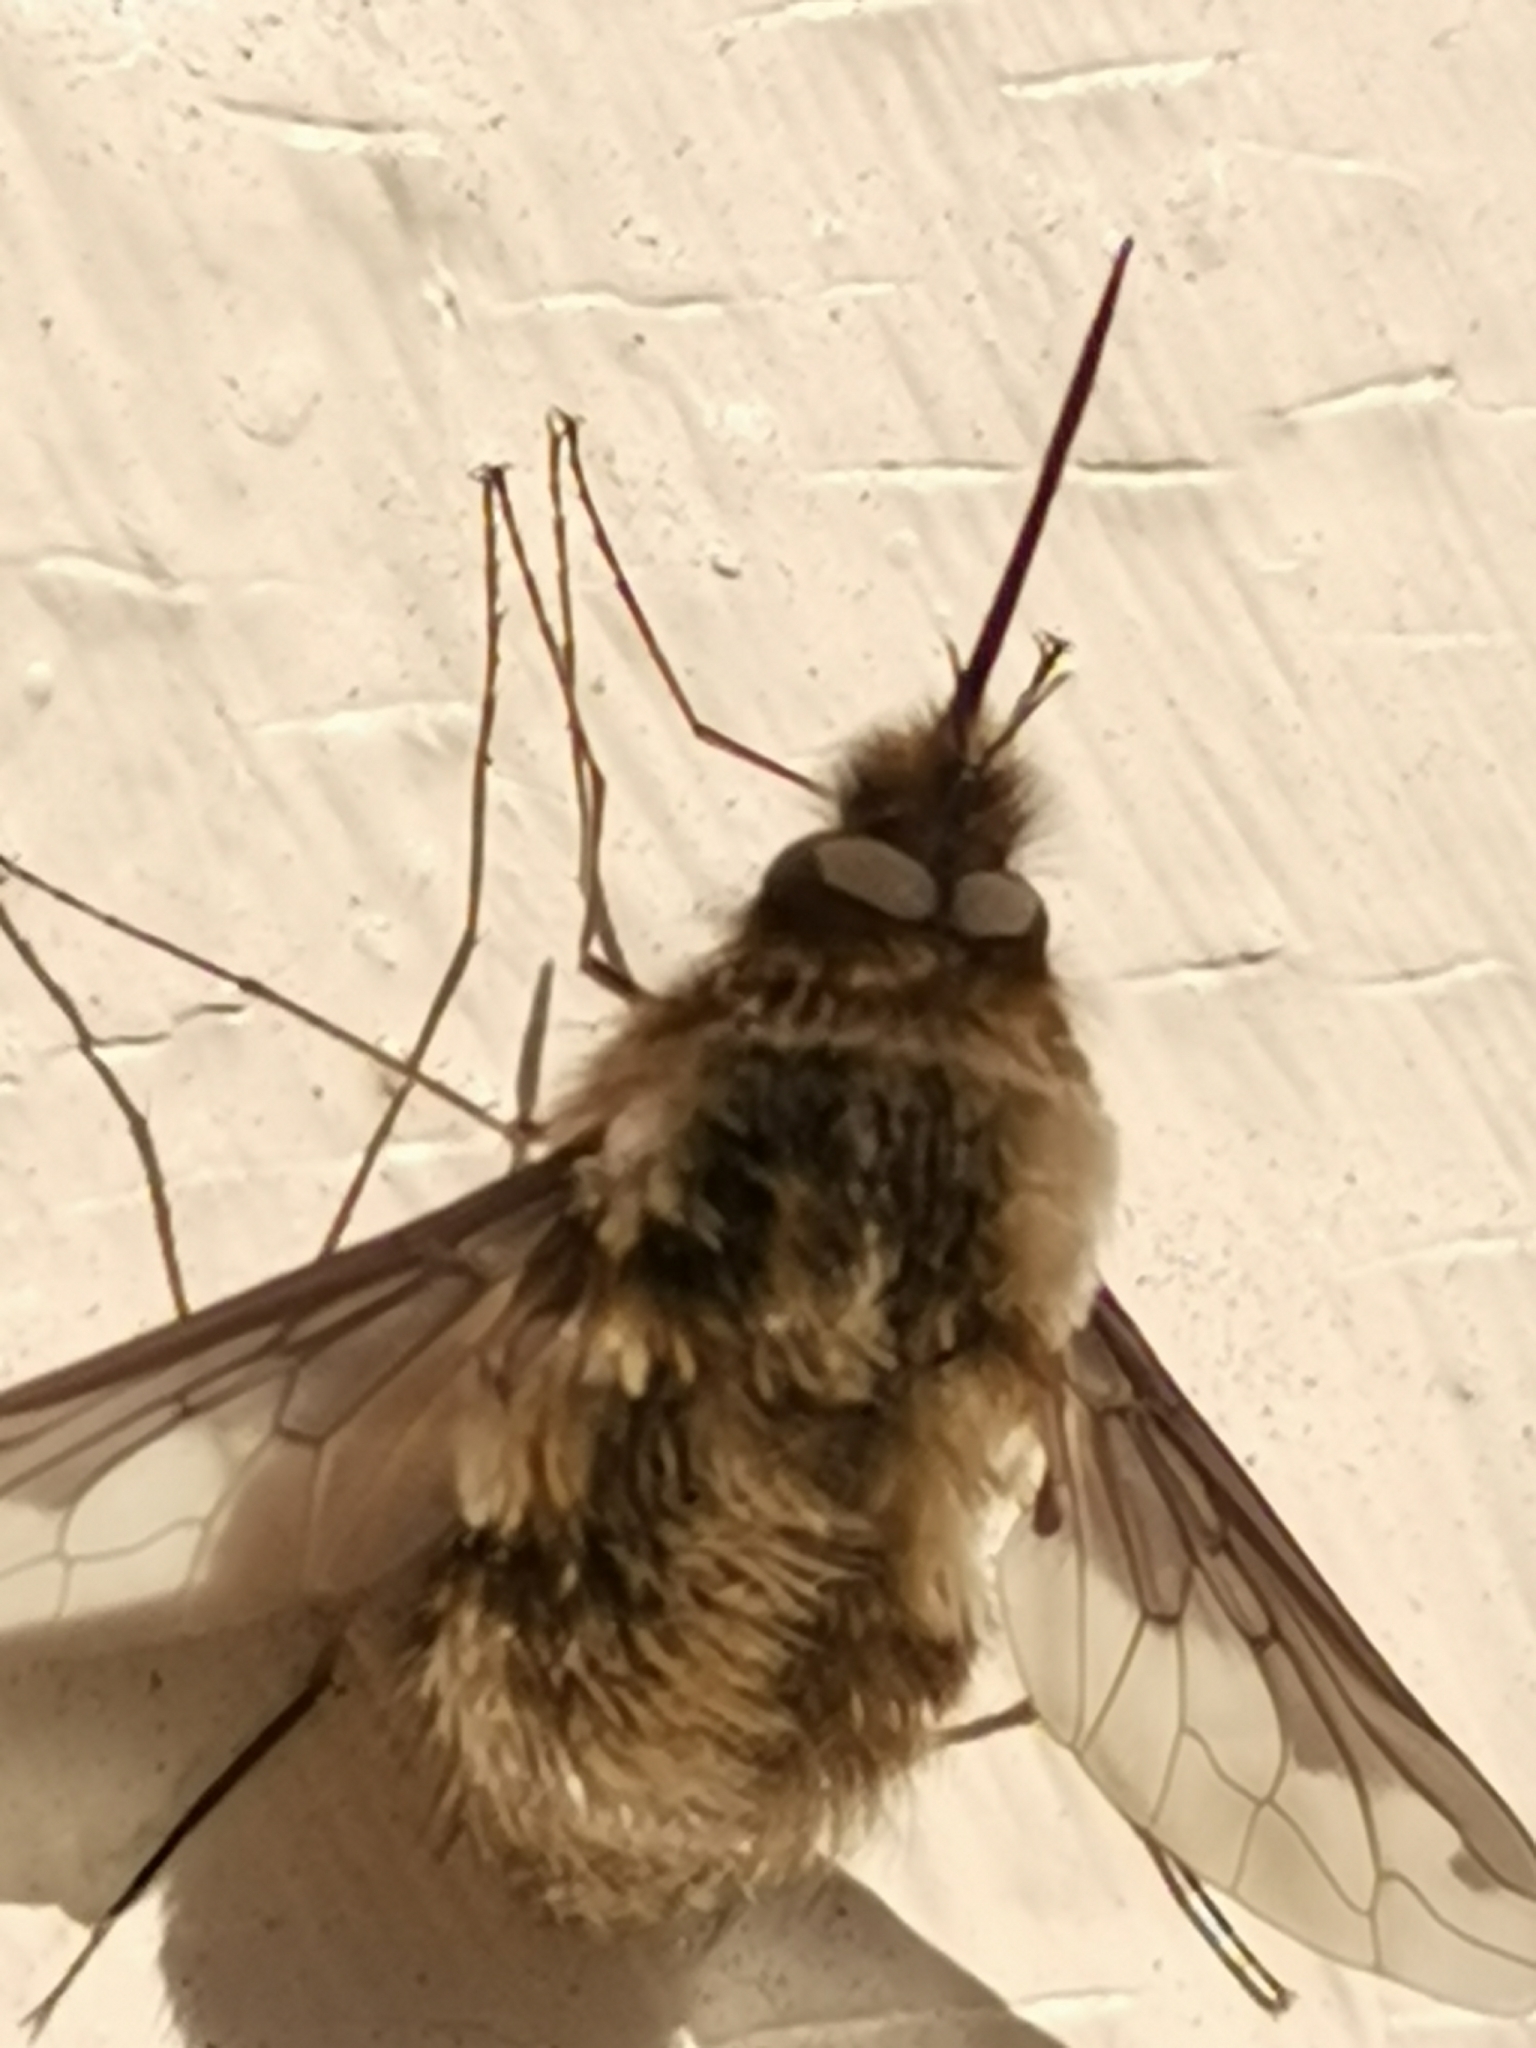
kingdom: Animalia
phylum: Arthropoda
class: Insecta
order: Diptera
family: Bombyliidae
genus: Bombylius
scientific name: Bombylius major
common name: Bee fly
